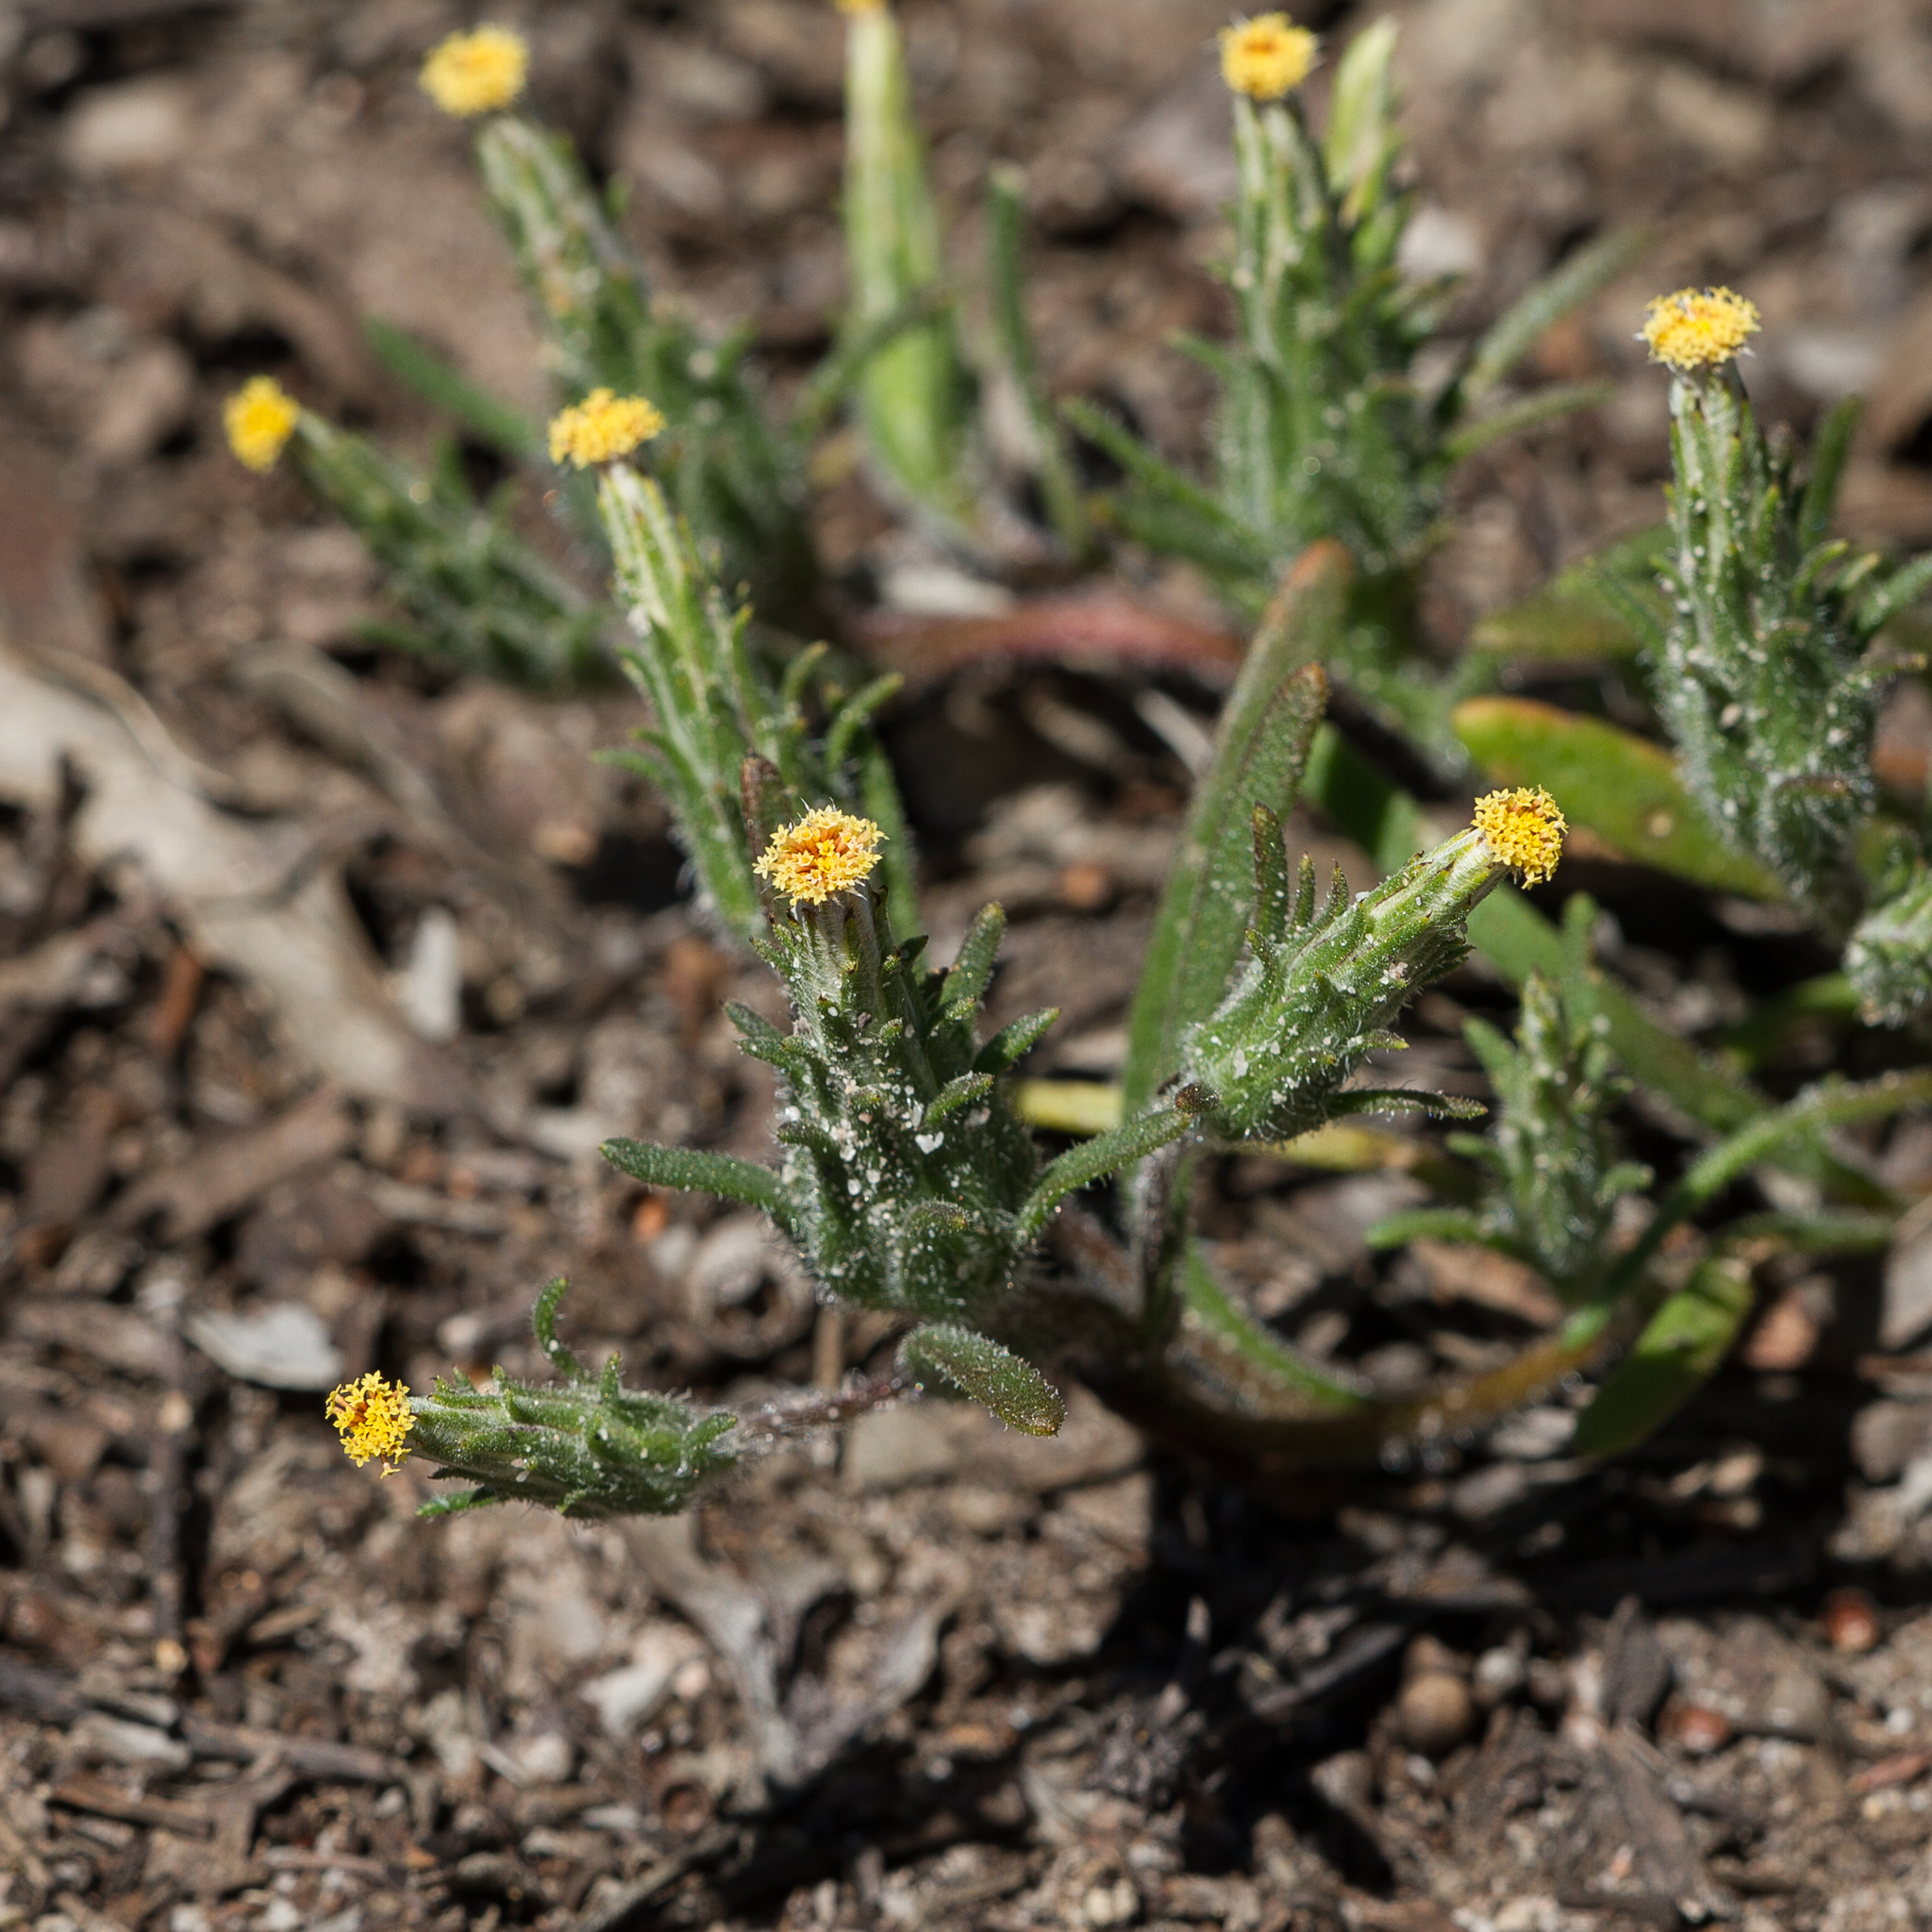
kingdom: Plantae
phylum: Tracheophyta
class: Magnoliopsida
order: Asterales
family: Asteraceae
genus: Podotheca
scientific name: Podotheca angustifolia
